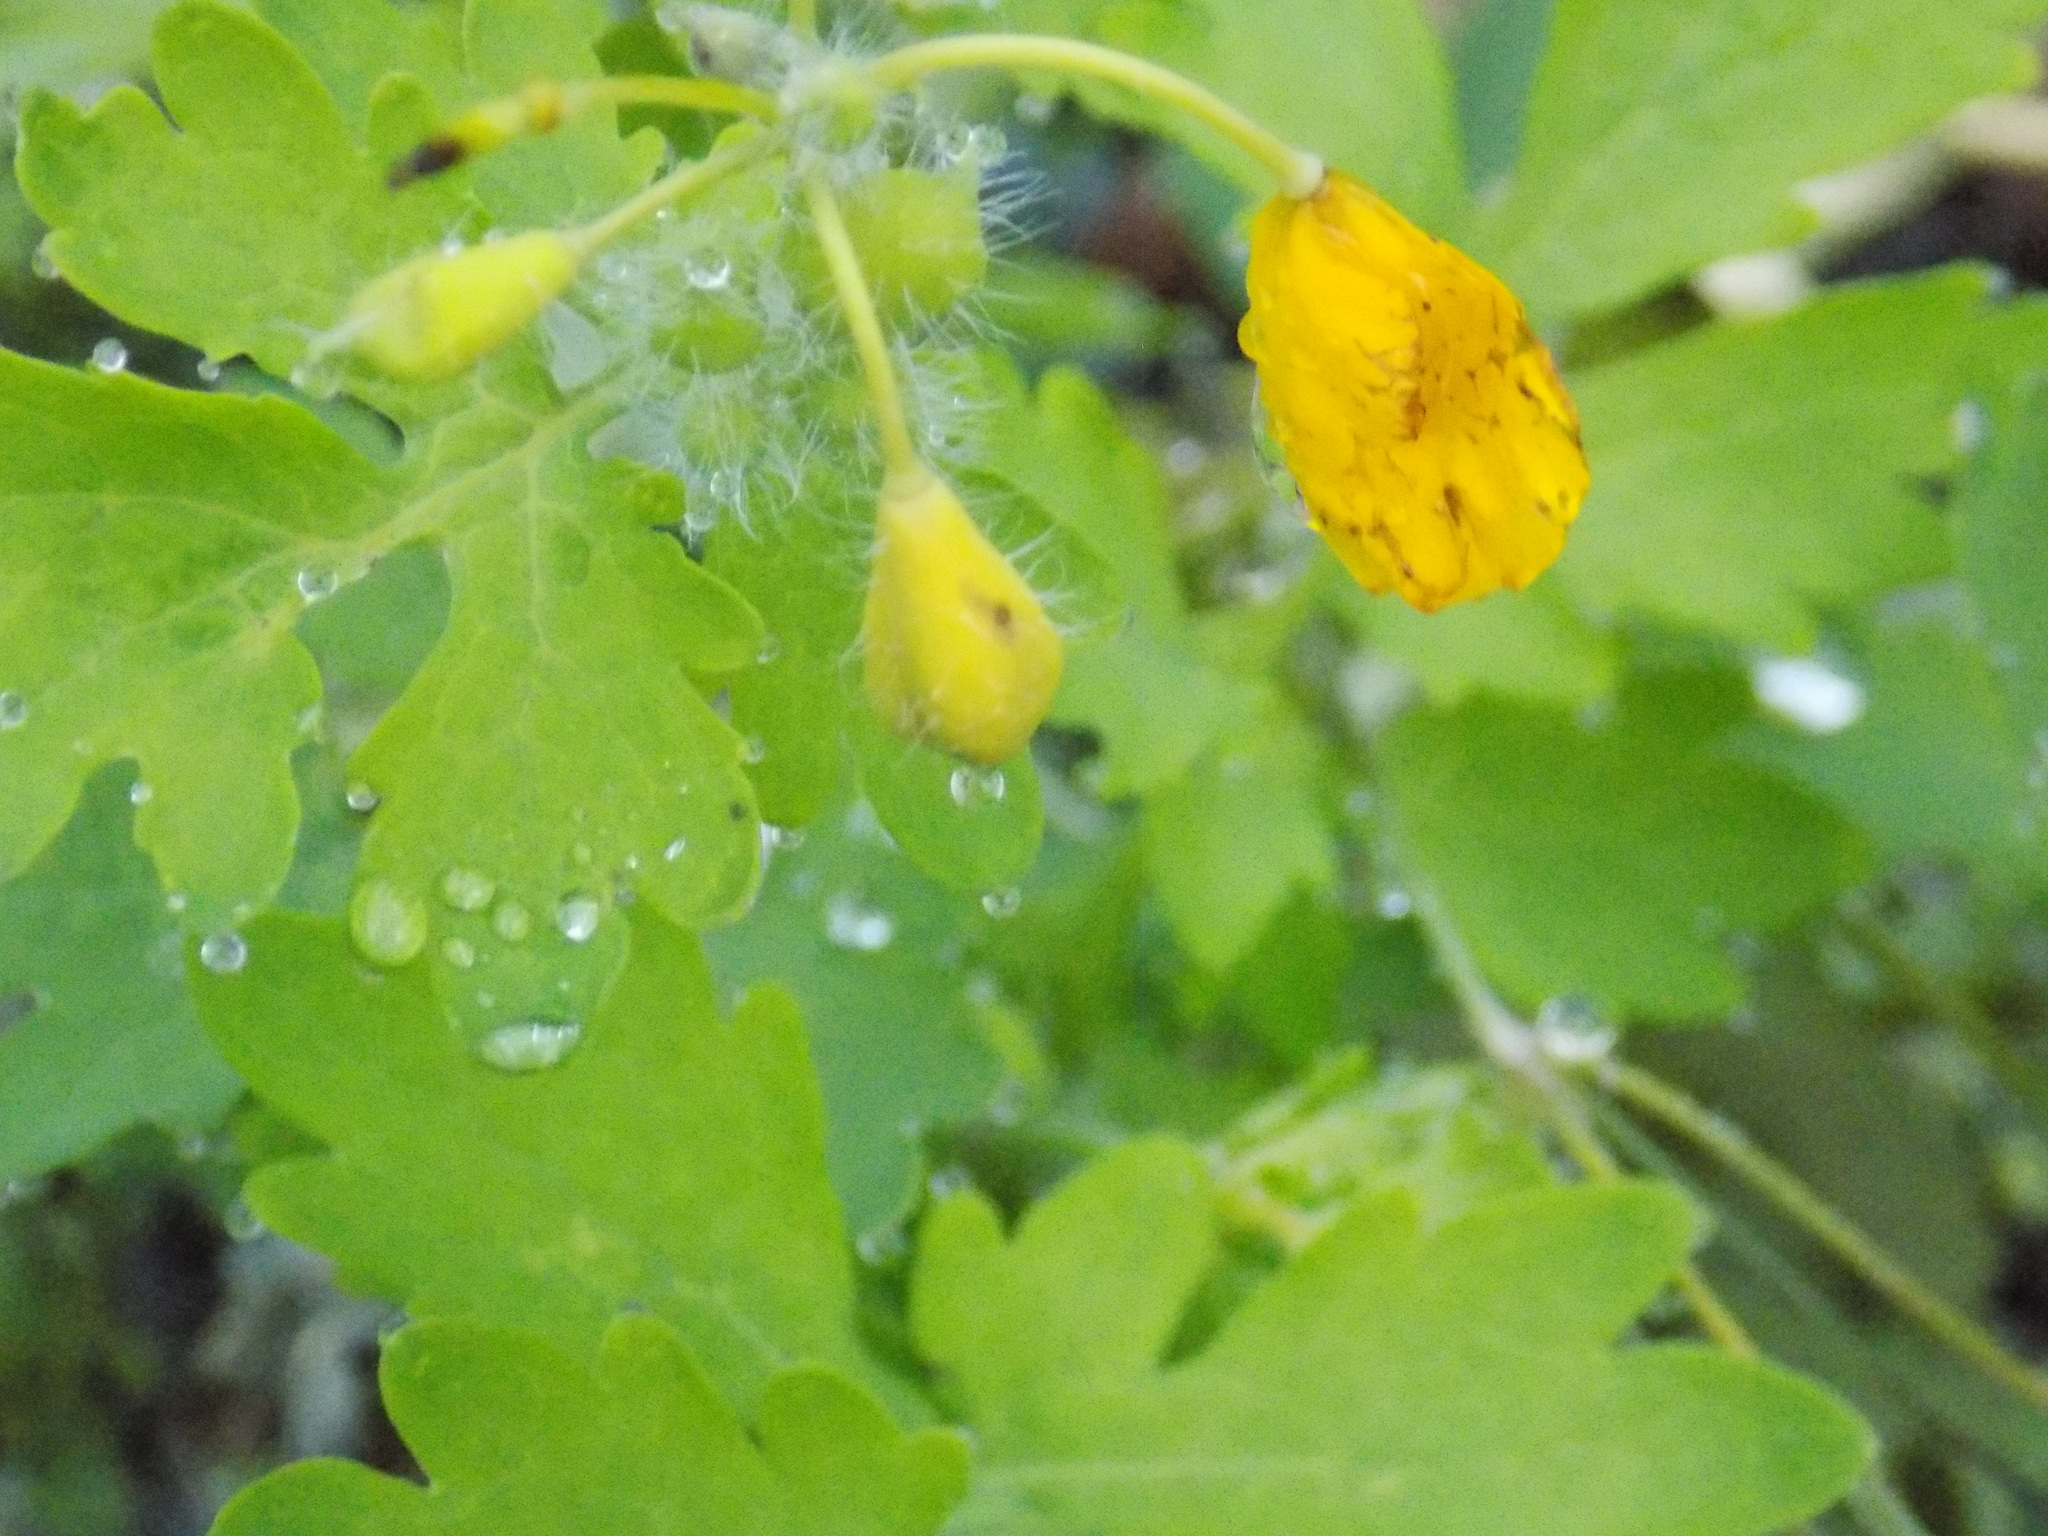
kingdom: Plantae
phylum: Tracheophyta
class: Magnoliopsida
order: Ranunculales
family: Papaveraceae
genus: Chelidonium
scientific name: Chelidonium majus
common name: Greater celandine
